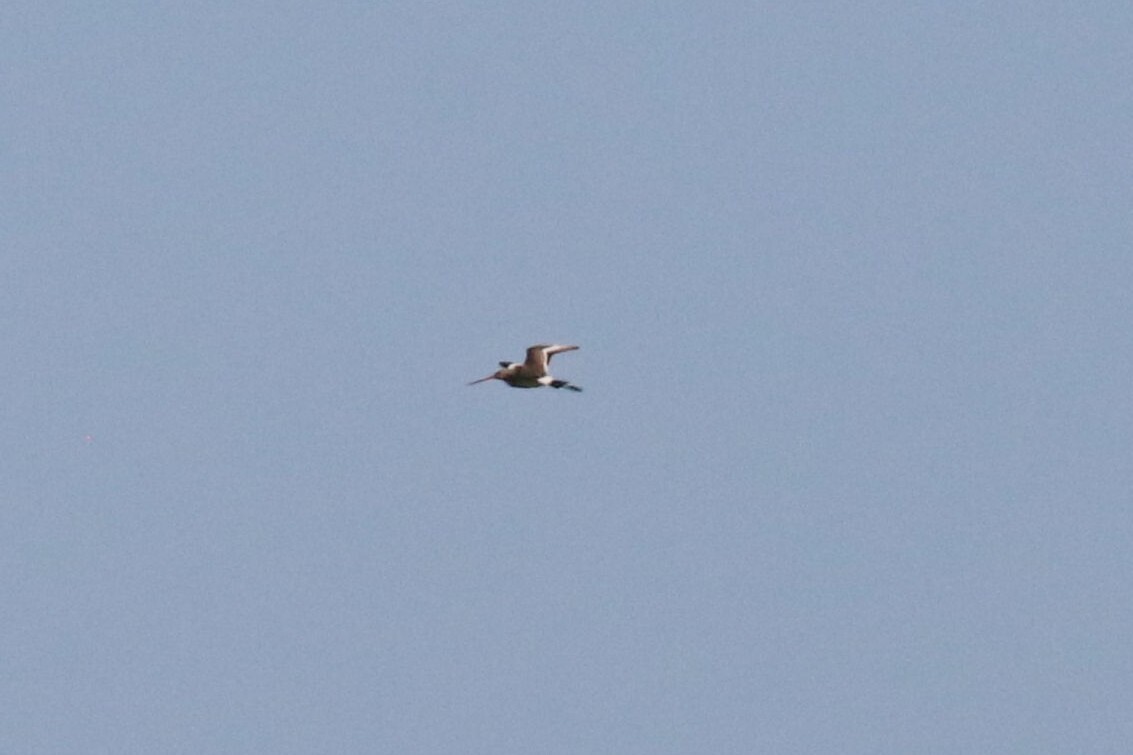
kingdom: Animalia
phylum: Chordata
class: Aves
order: Charadriiformes
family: Scolopacidae
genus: Limosa
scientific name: Limosa limosa
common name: Black-tailed godwit
